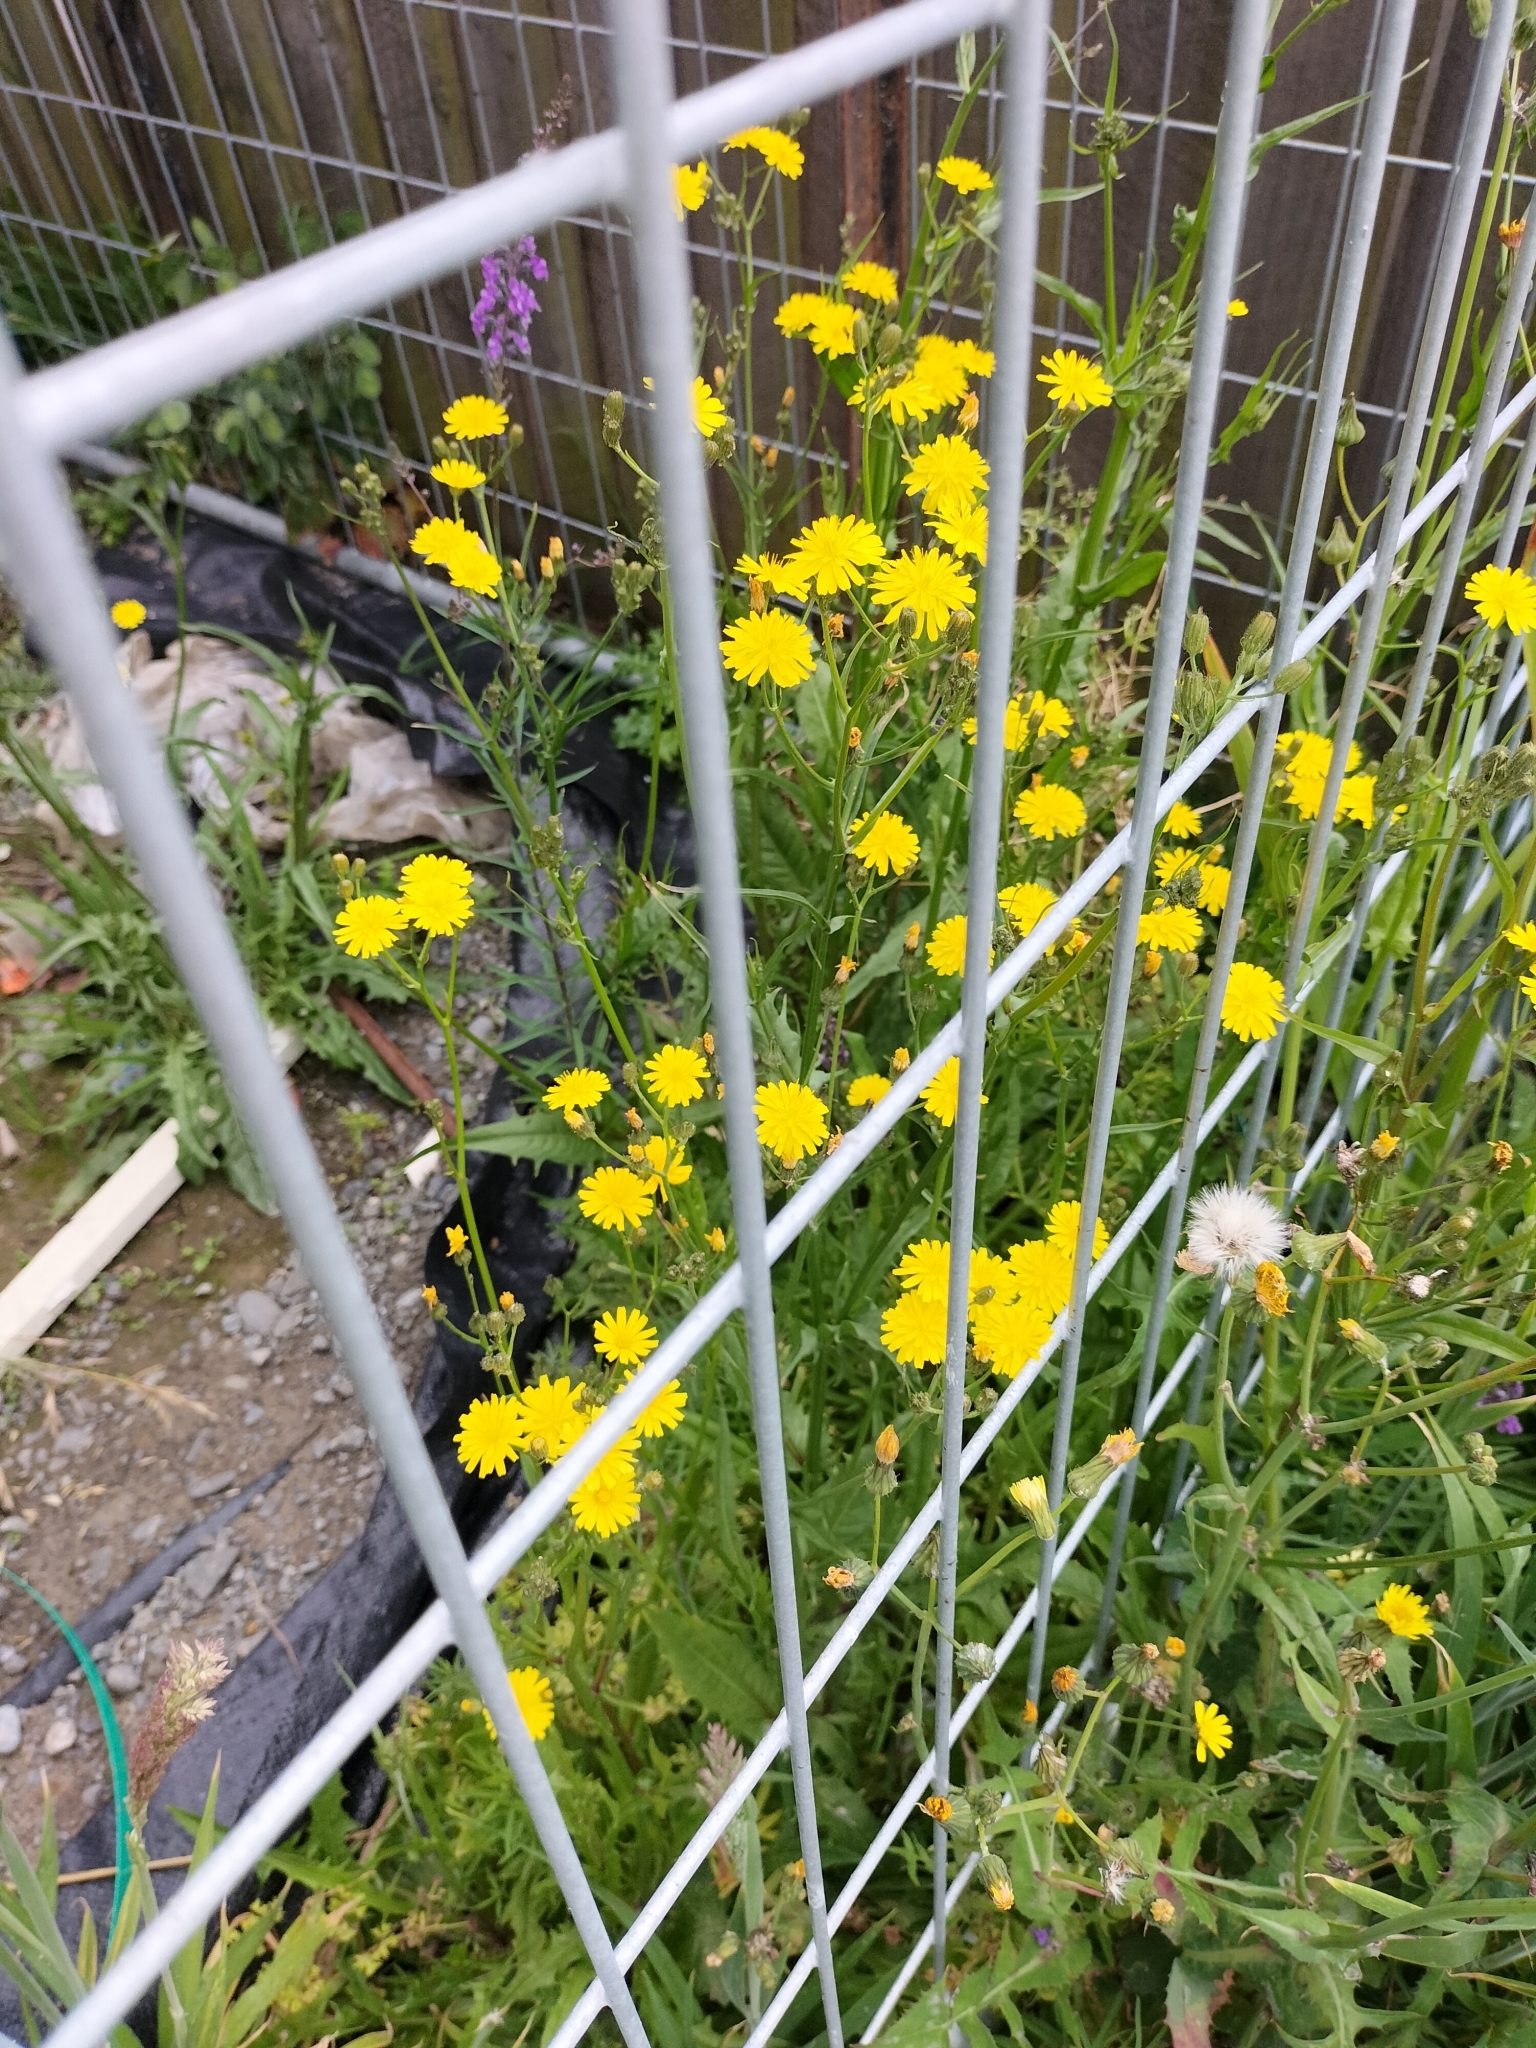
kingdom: Plantae
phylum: Tracheophyta
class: Magnoliopsida
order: Asterales
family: Asteraceae
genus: Crepis
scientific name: Crepis capillaris
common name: Smooth hawksbeard
